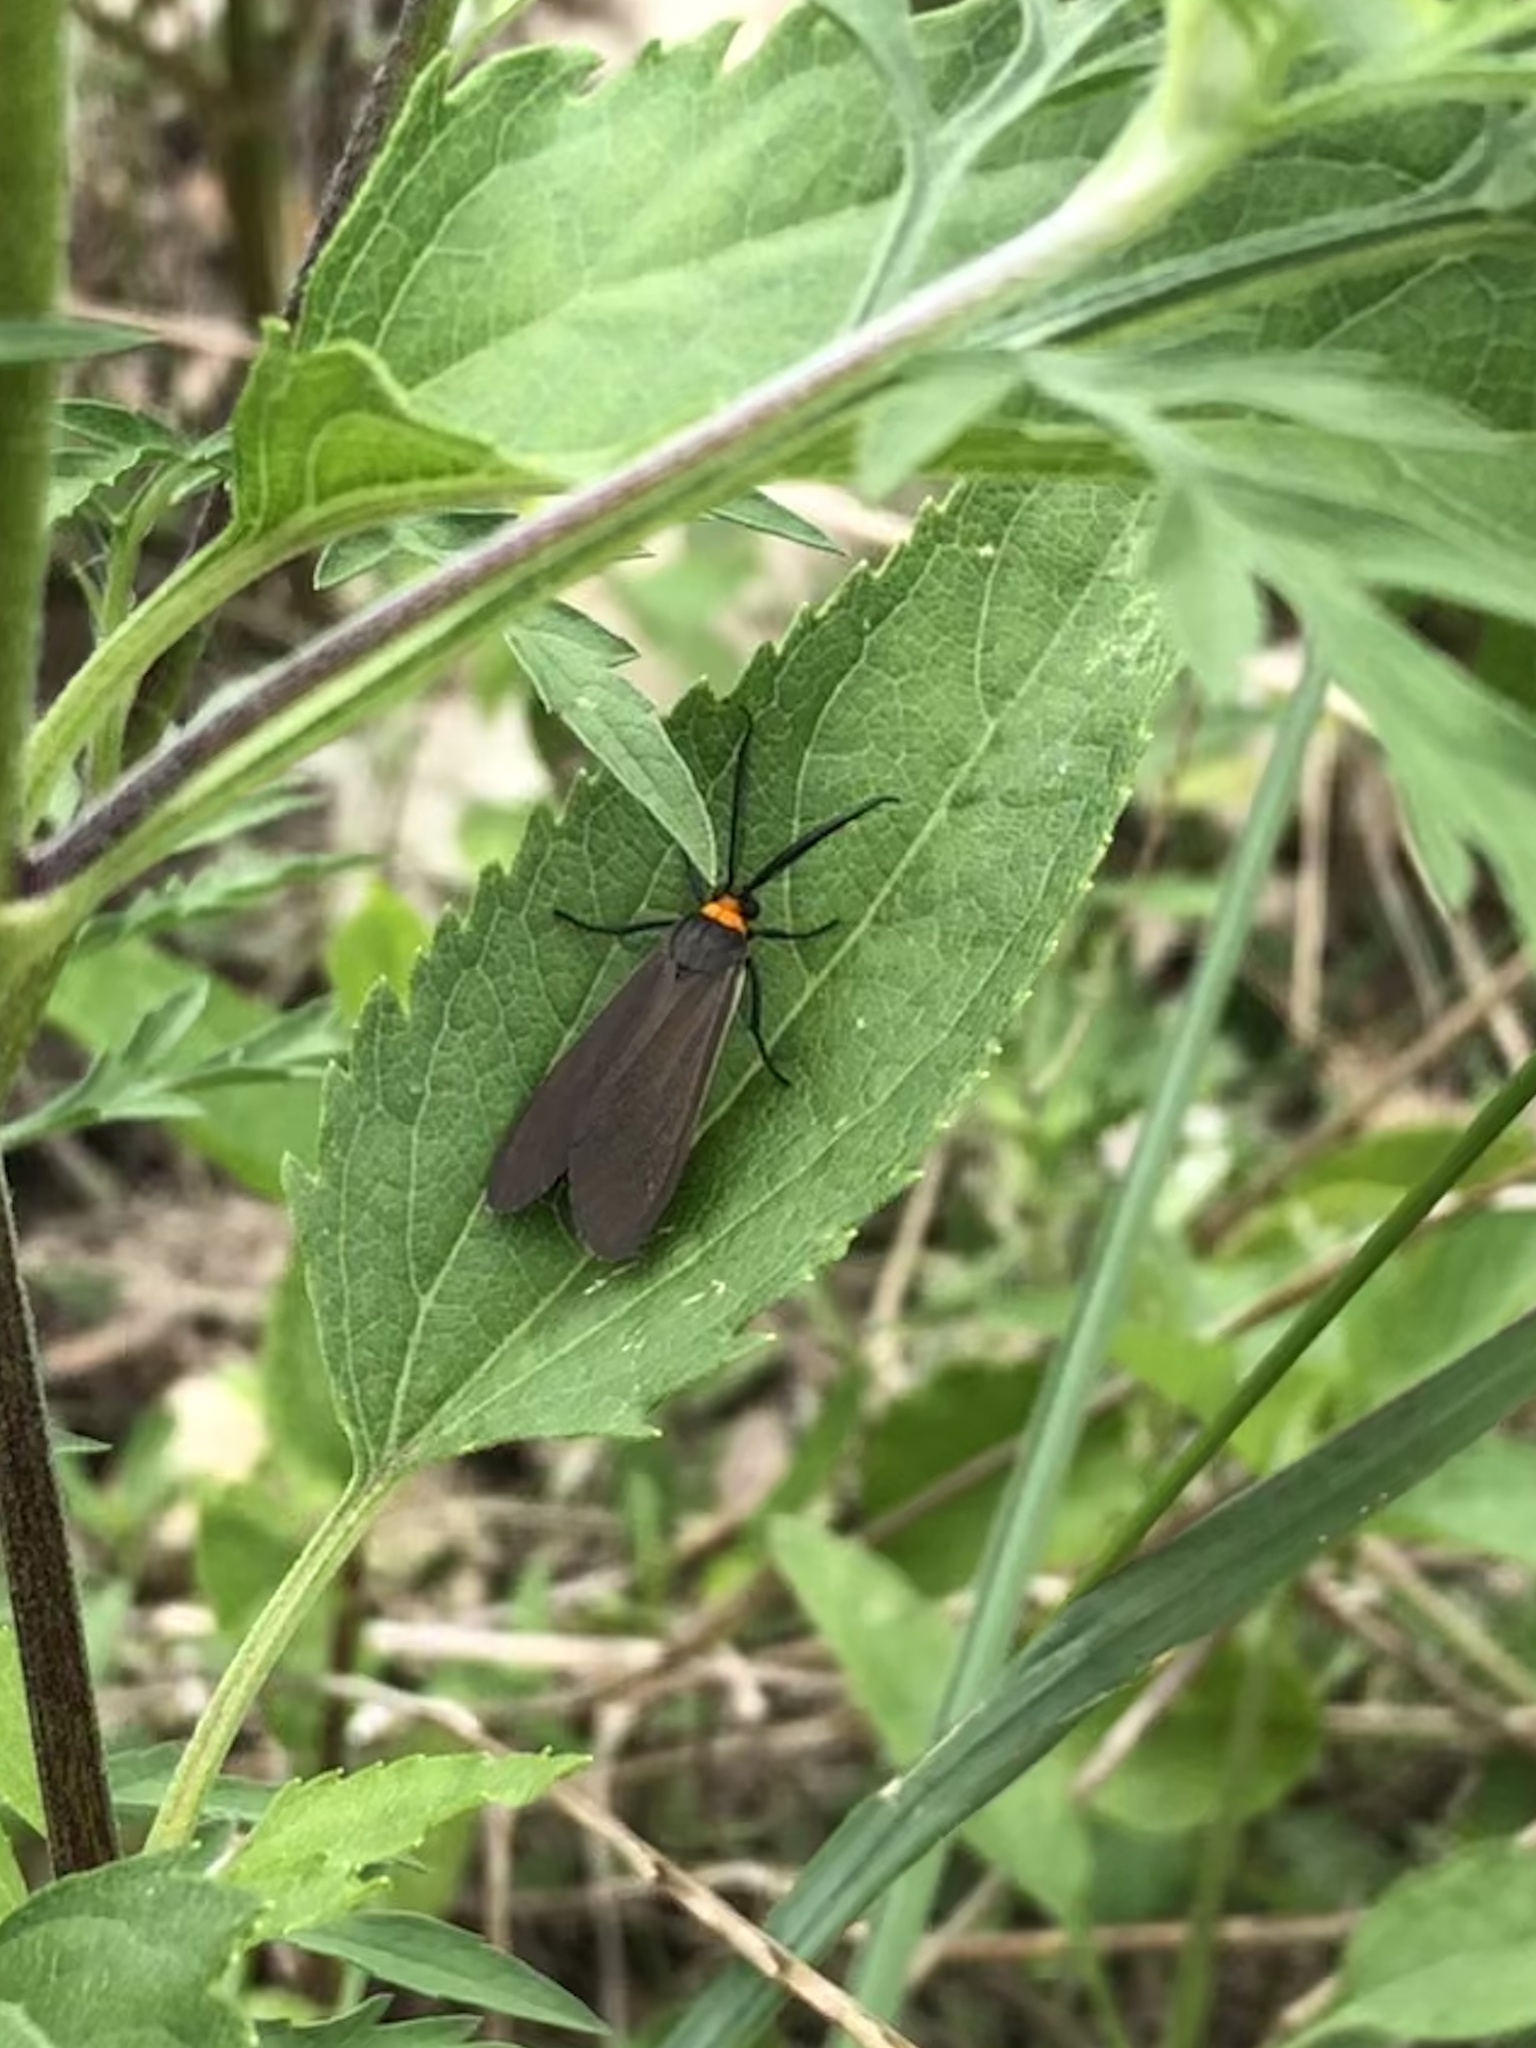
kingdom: Animalia
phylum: Arthropoda
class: Insecta
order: Lepidoptera
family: Erebidae
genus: Cisseps
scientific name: Cisseps fulvicollis
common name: Yellow-collared scape moth
